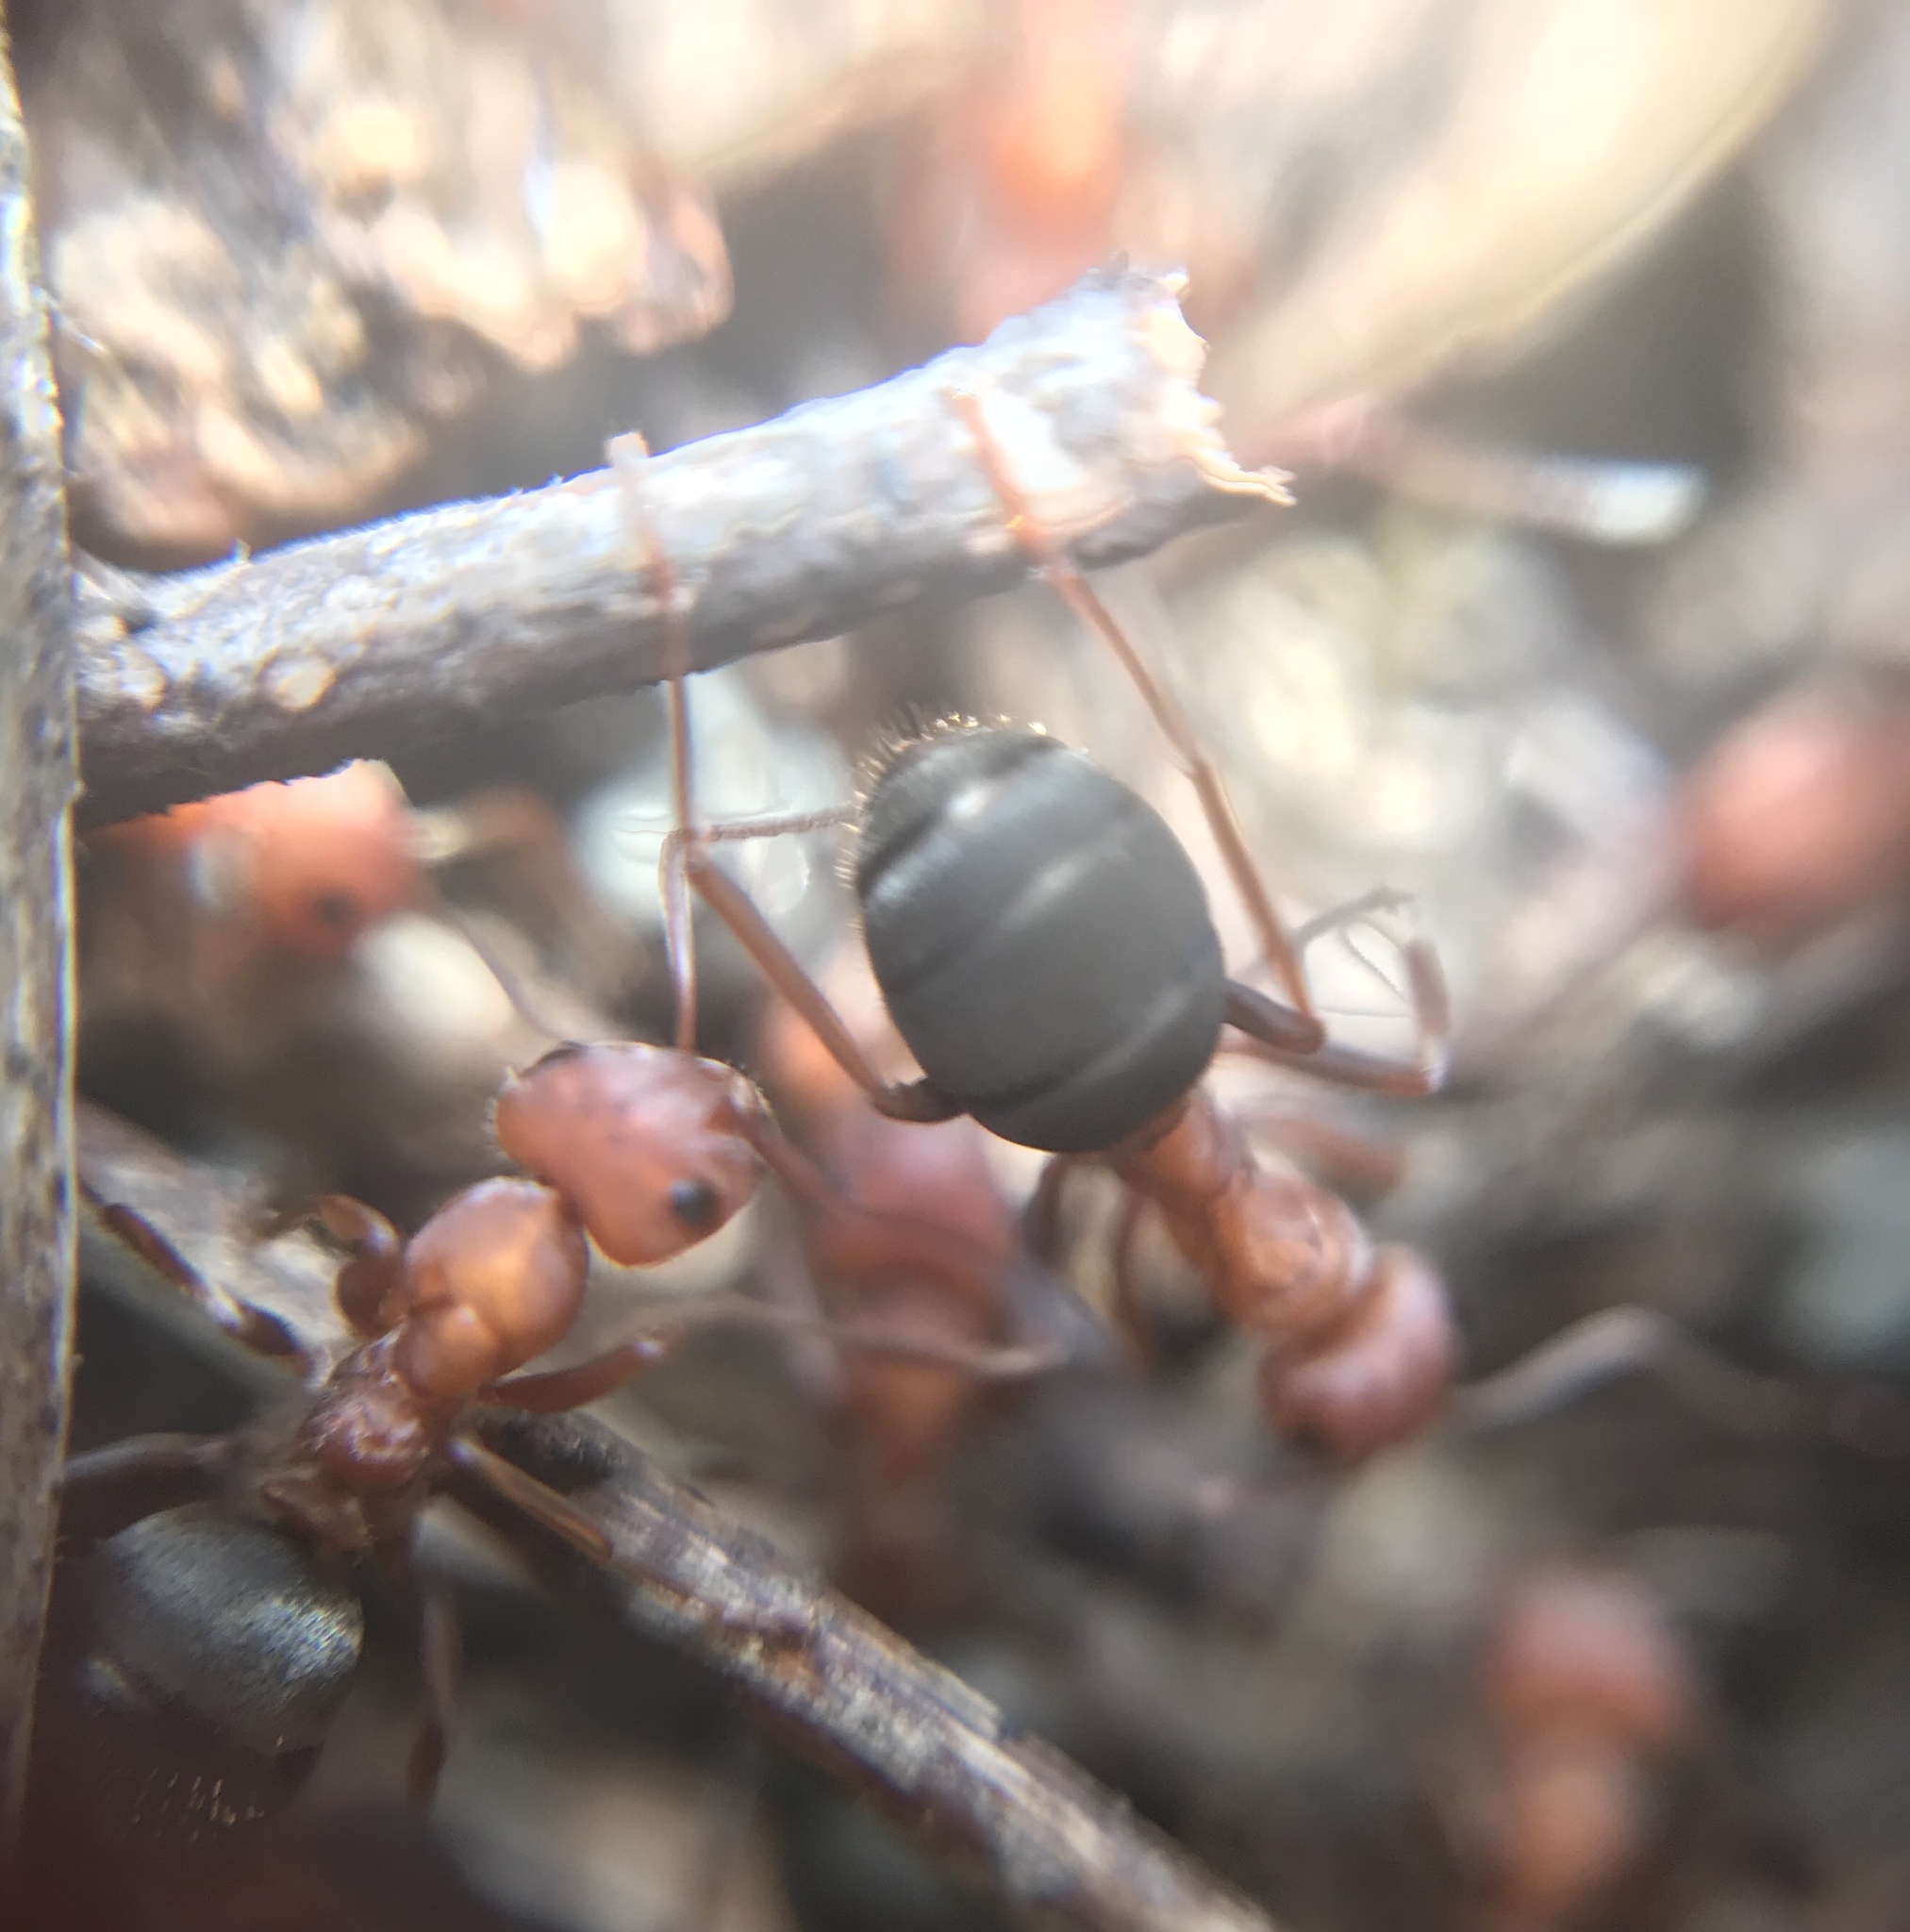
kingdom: Animalia
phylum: Arthropoda
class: Insecta
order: Hymenoptera
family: Formicidae
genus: Formica
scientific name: Formica integroides
